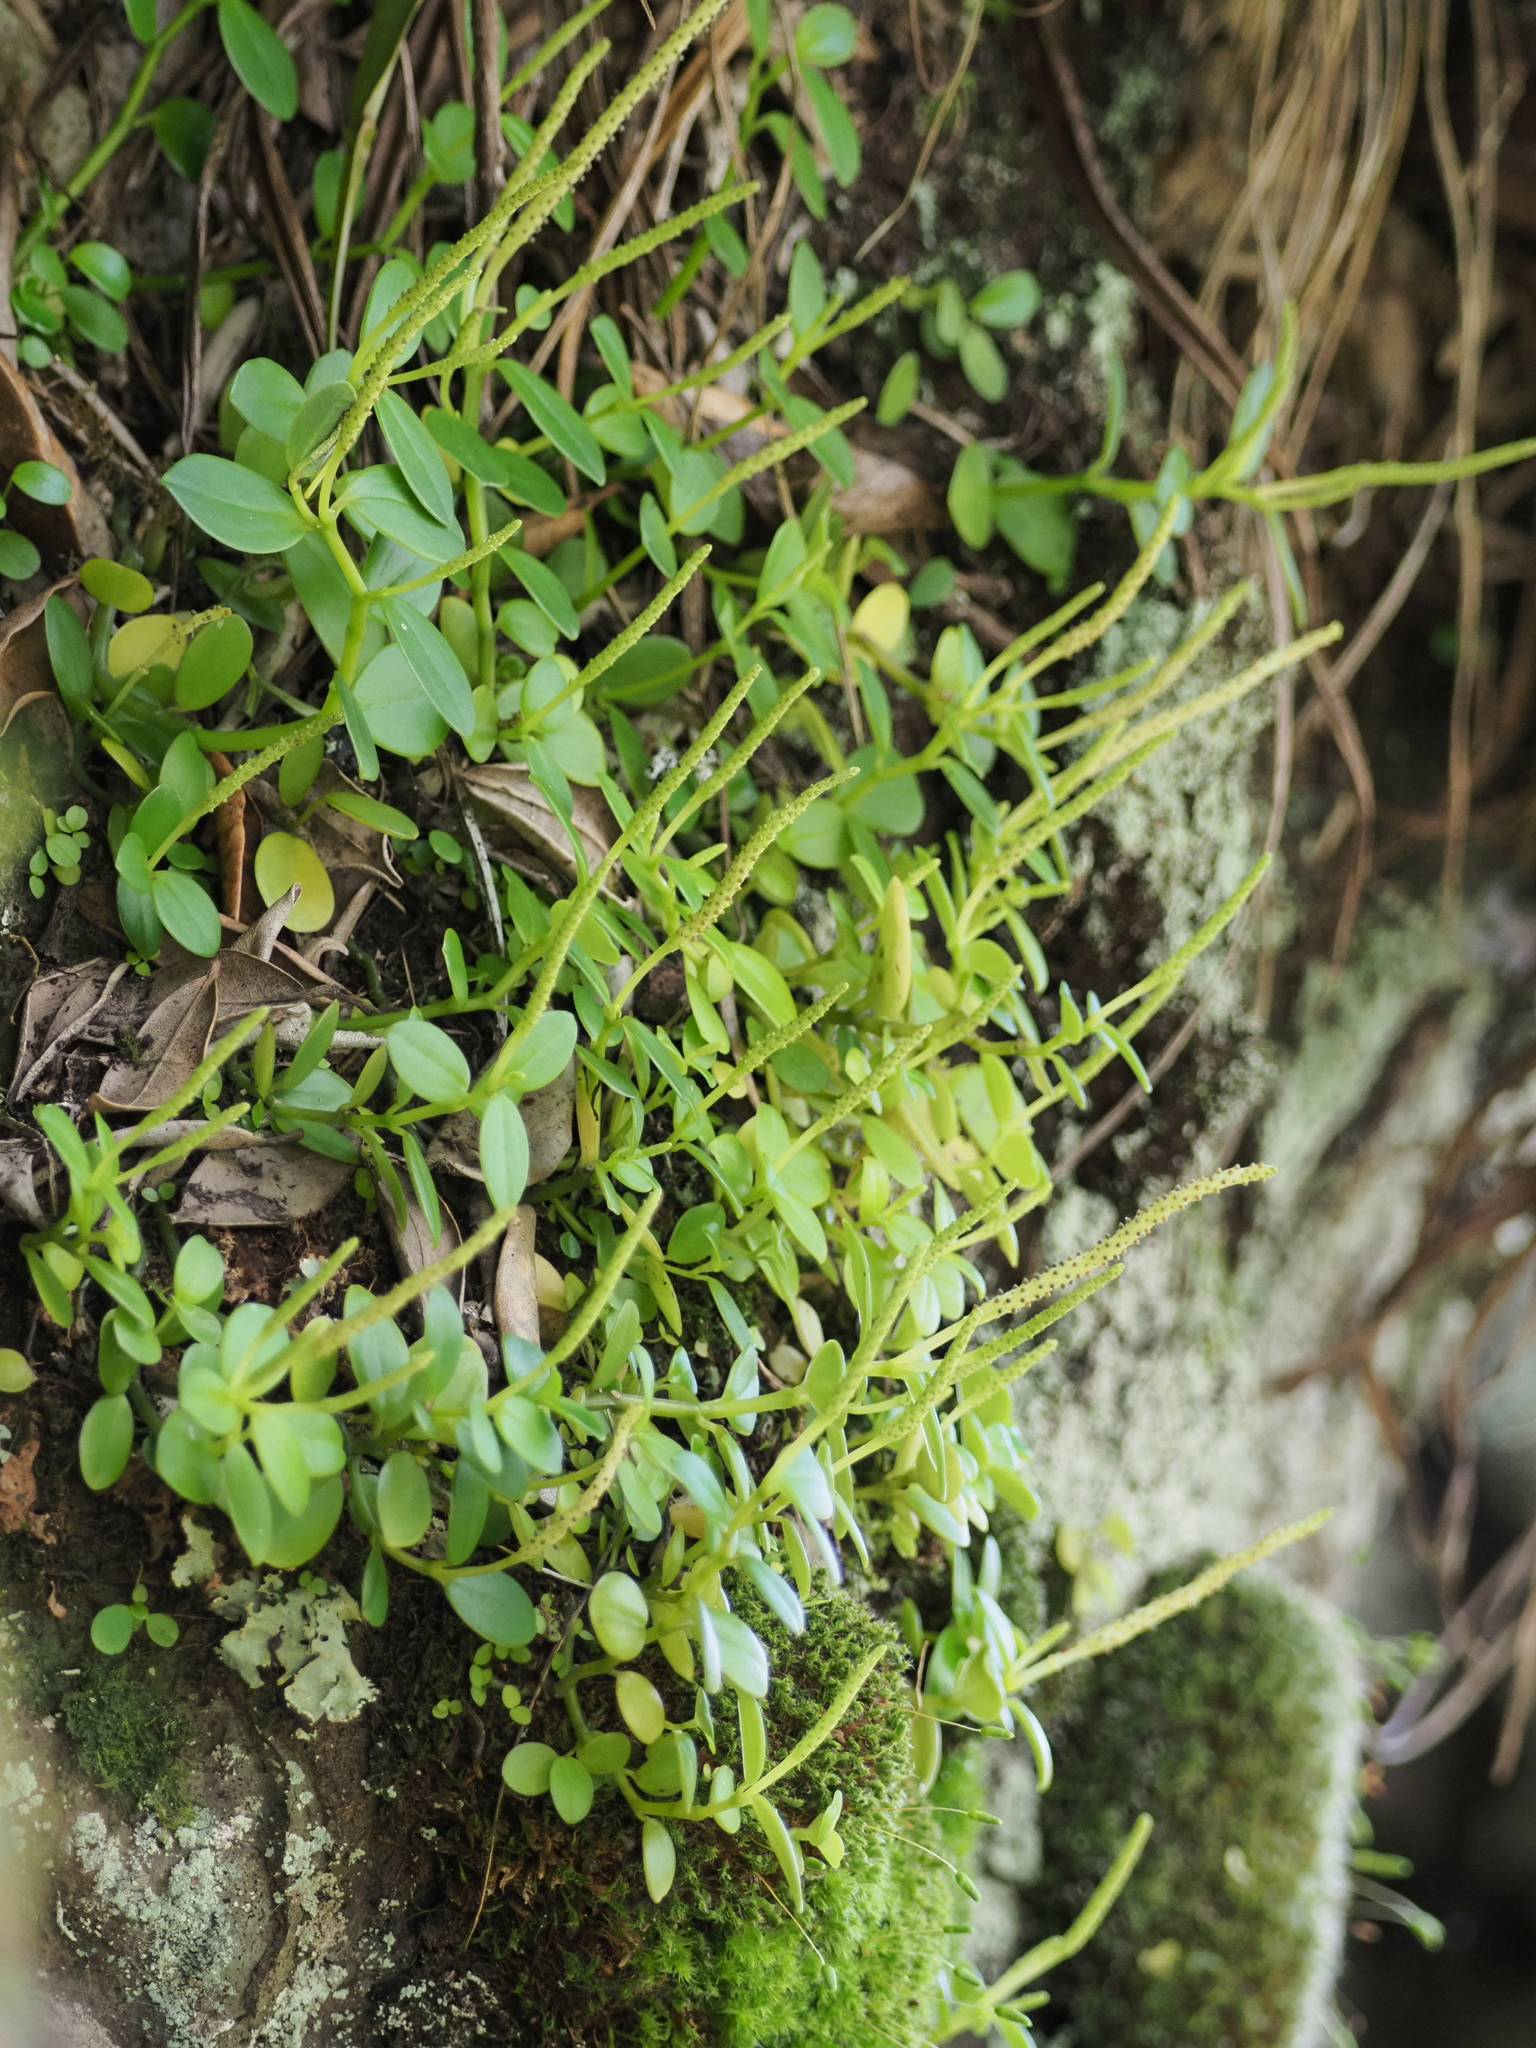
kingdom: Plantae
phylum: Tracheophyta
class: Magnoliopsida
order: Piperales
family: Piperaceae
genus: Peperomia
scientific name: Peperomia urvilleana
